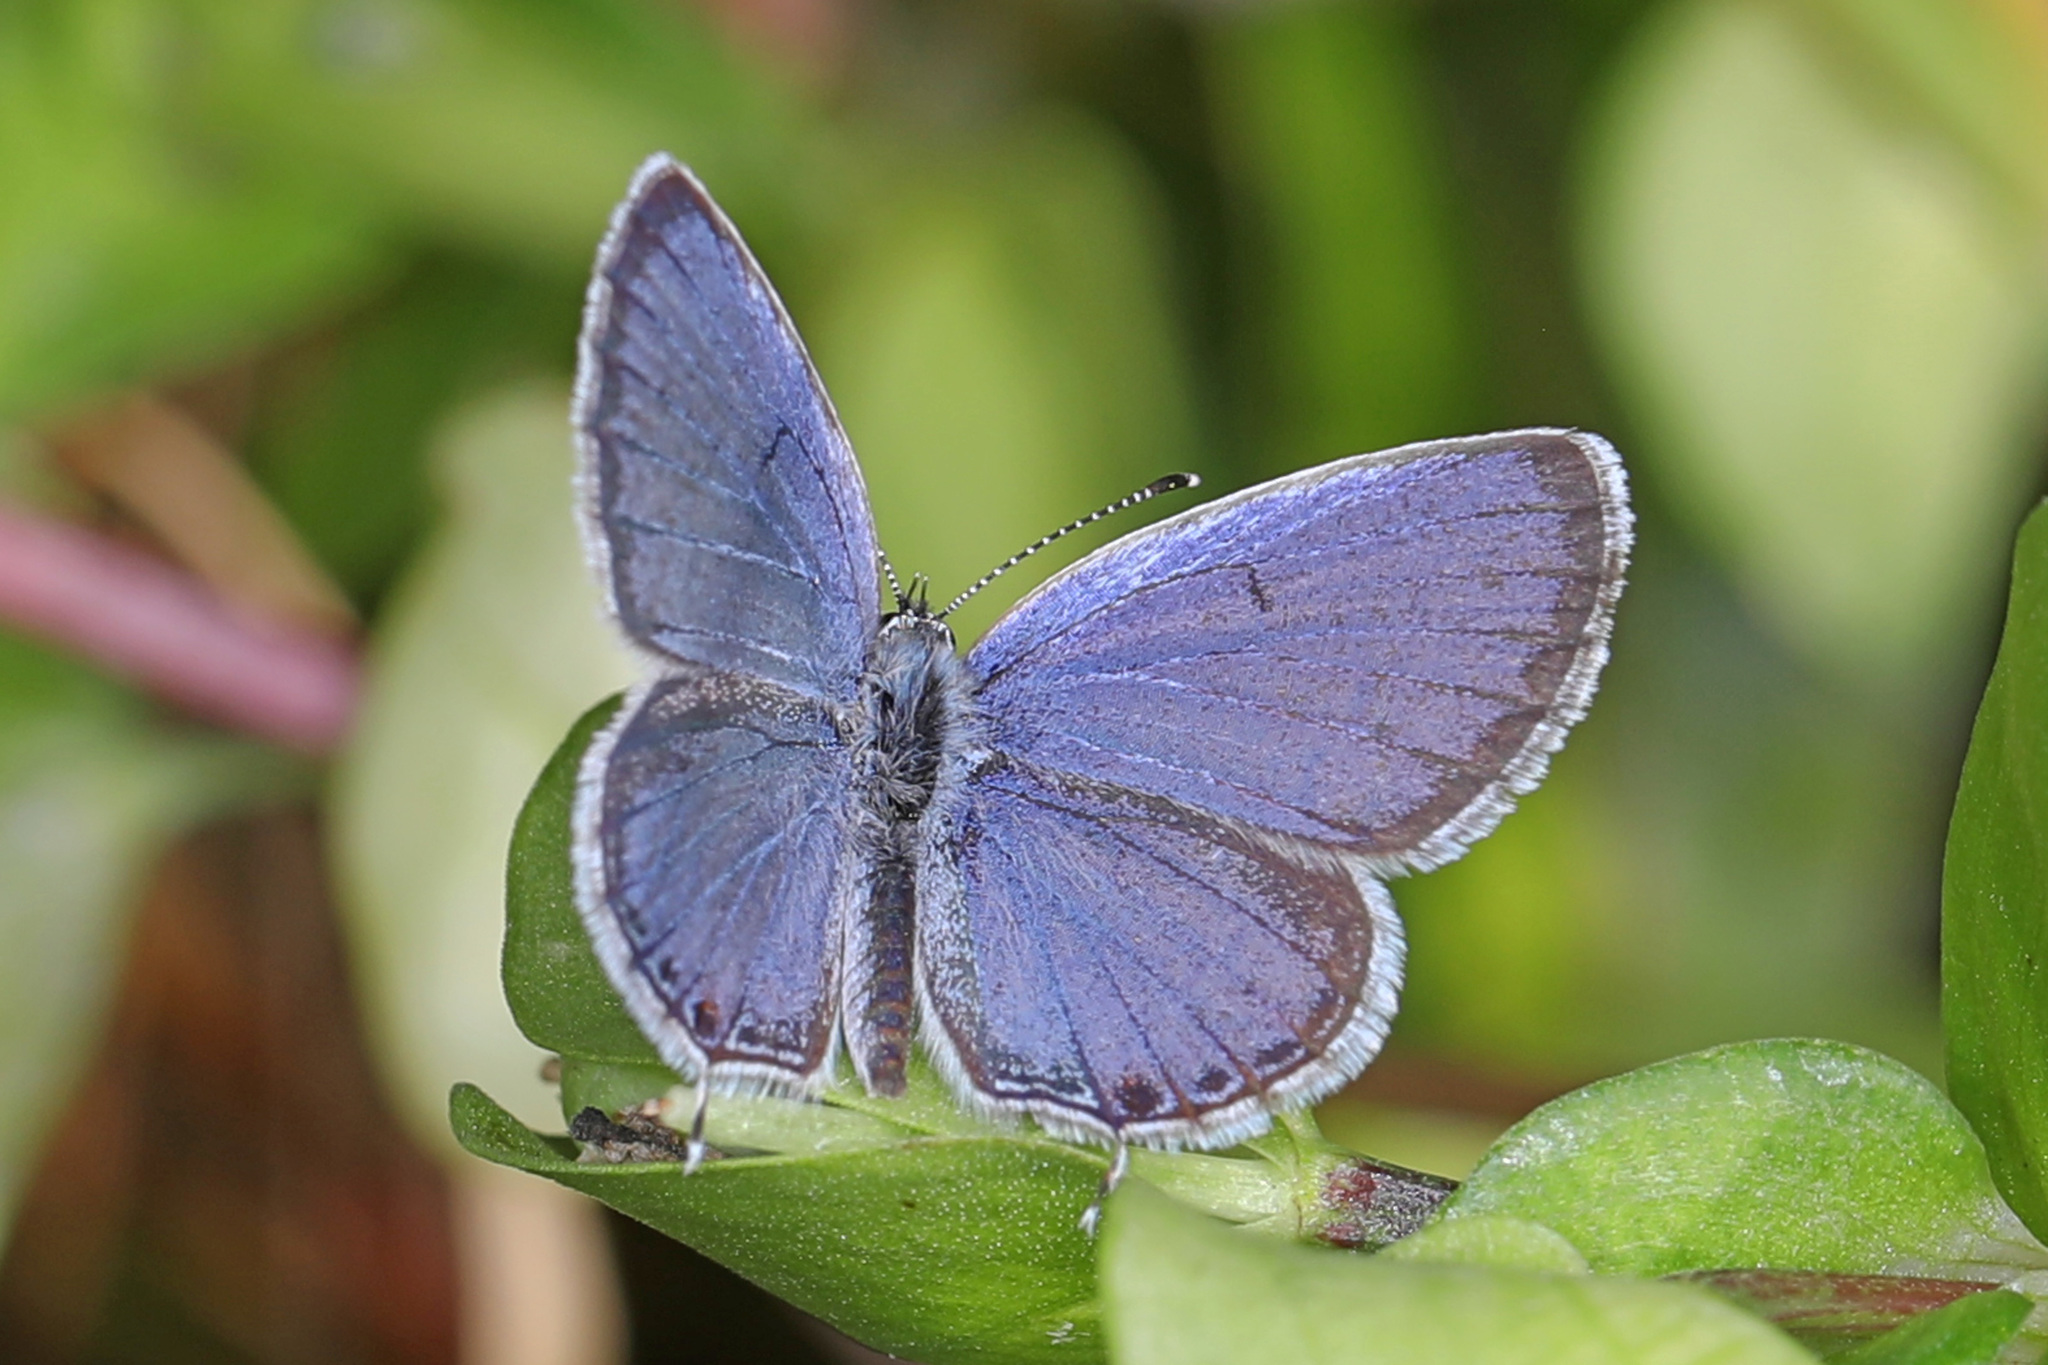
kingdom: Animalia
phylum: Arthropoda
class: Insecta
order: Lepidoptera
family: Lycaenidae
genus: Elkalyce
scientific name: Elkalyce comyntas
